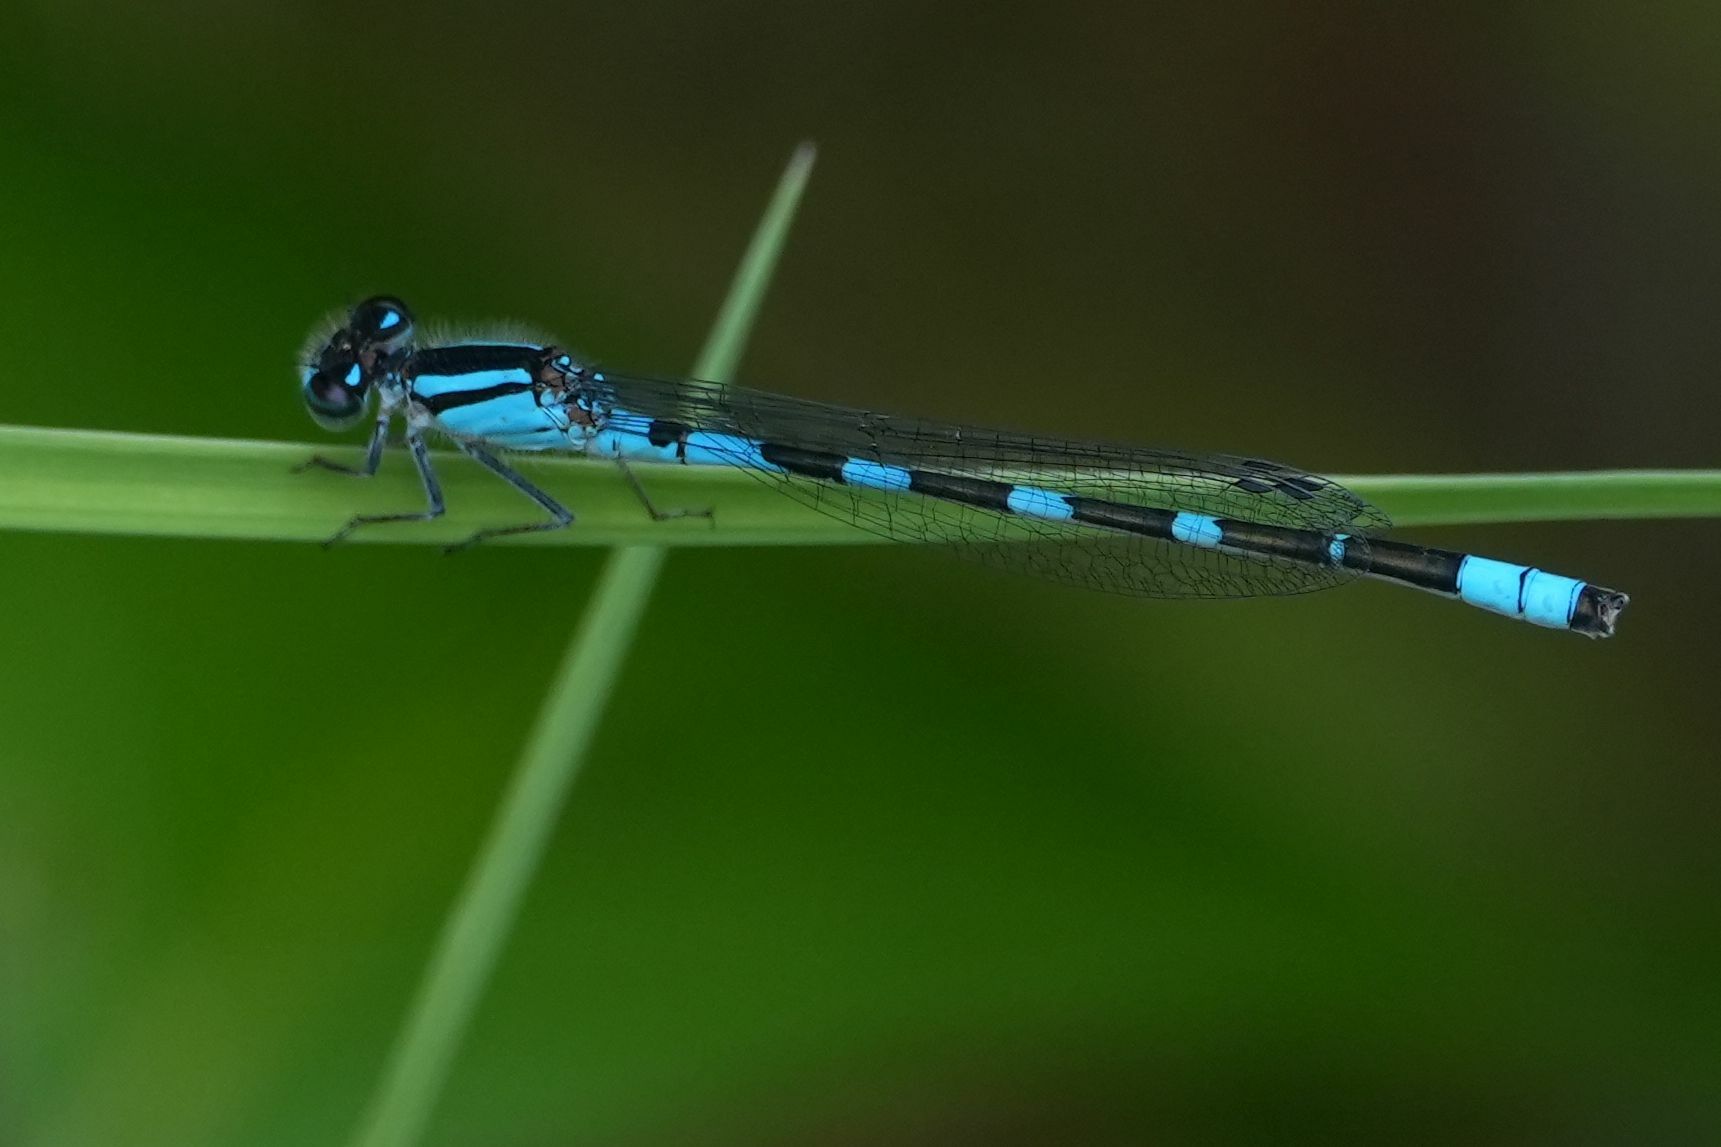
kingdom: Animalia
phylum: Arthropoda
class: Insecta
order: Odonata
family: Coenagrionidae
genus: Enallagma
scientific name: Enallagma carunculatum
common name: Tule bluet
